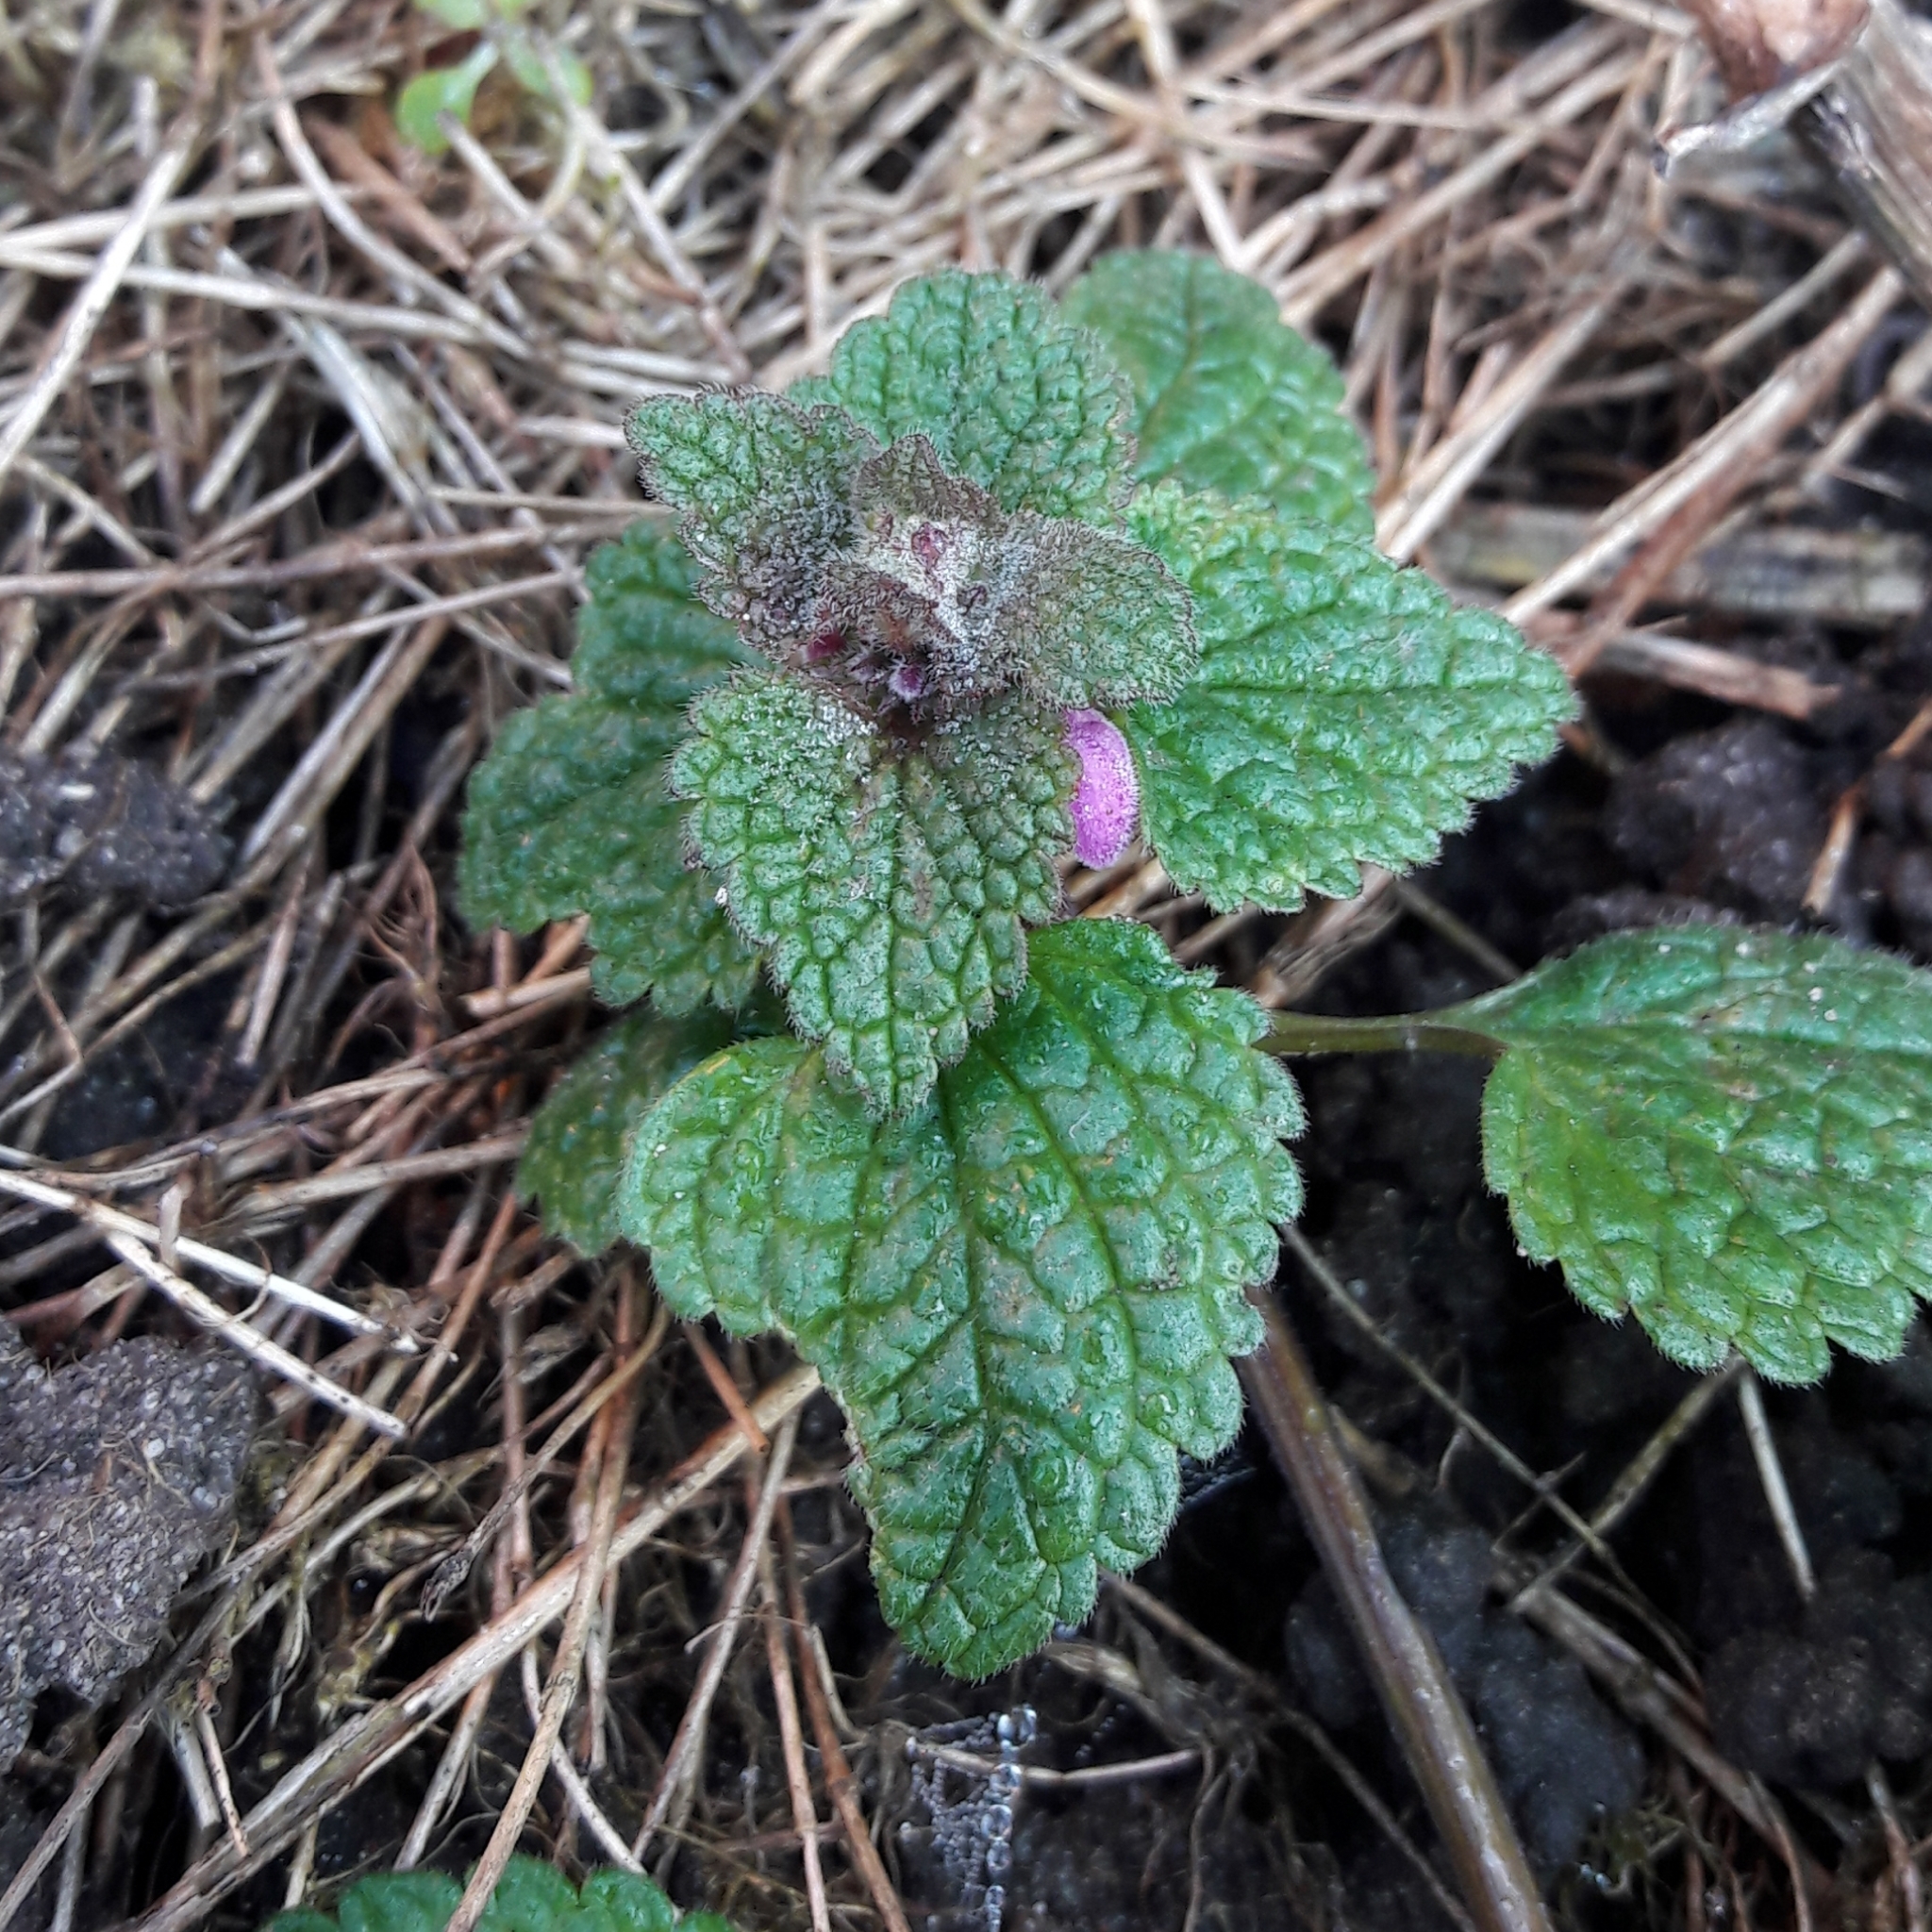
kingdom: Plantae
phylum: Tracheophyta
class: Magnoliopsida
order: Lamiales
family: Lamiaceae
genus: Lamium
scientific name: Lamium purpureum
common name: Red dead-nettle
